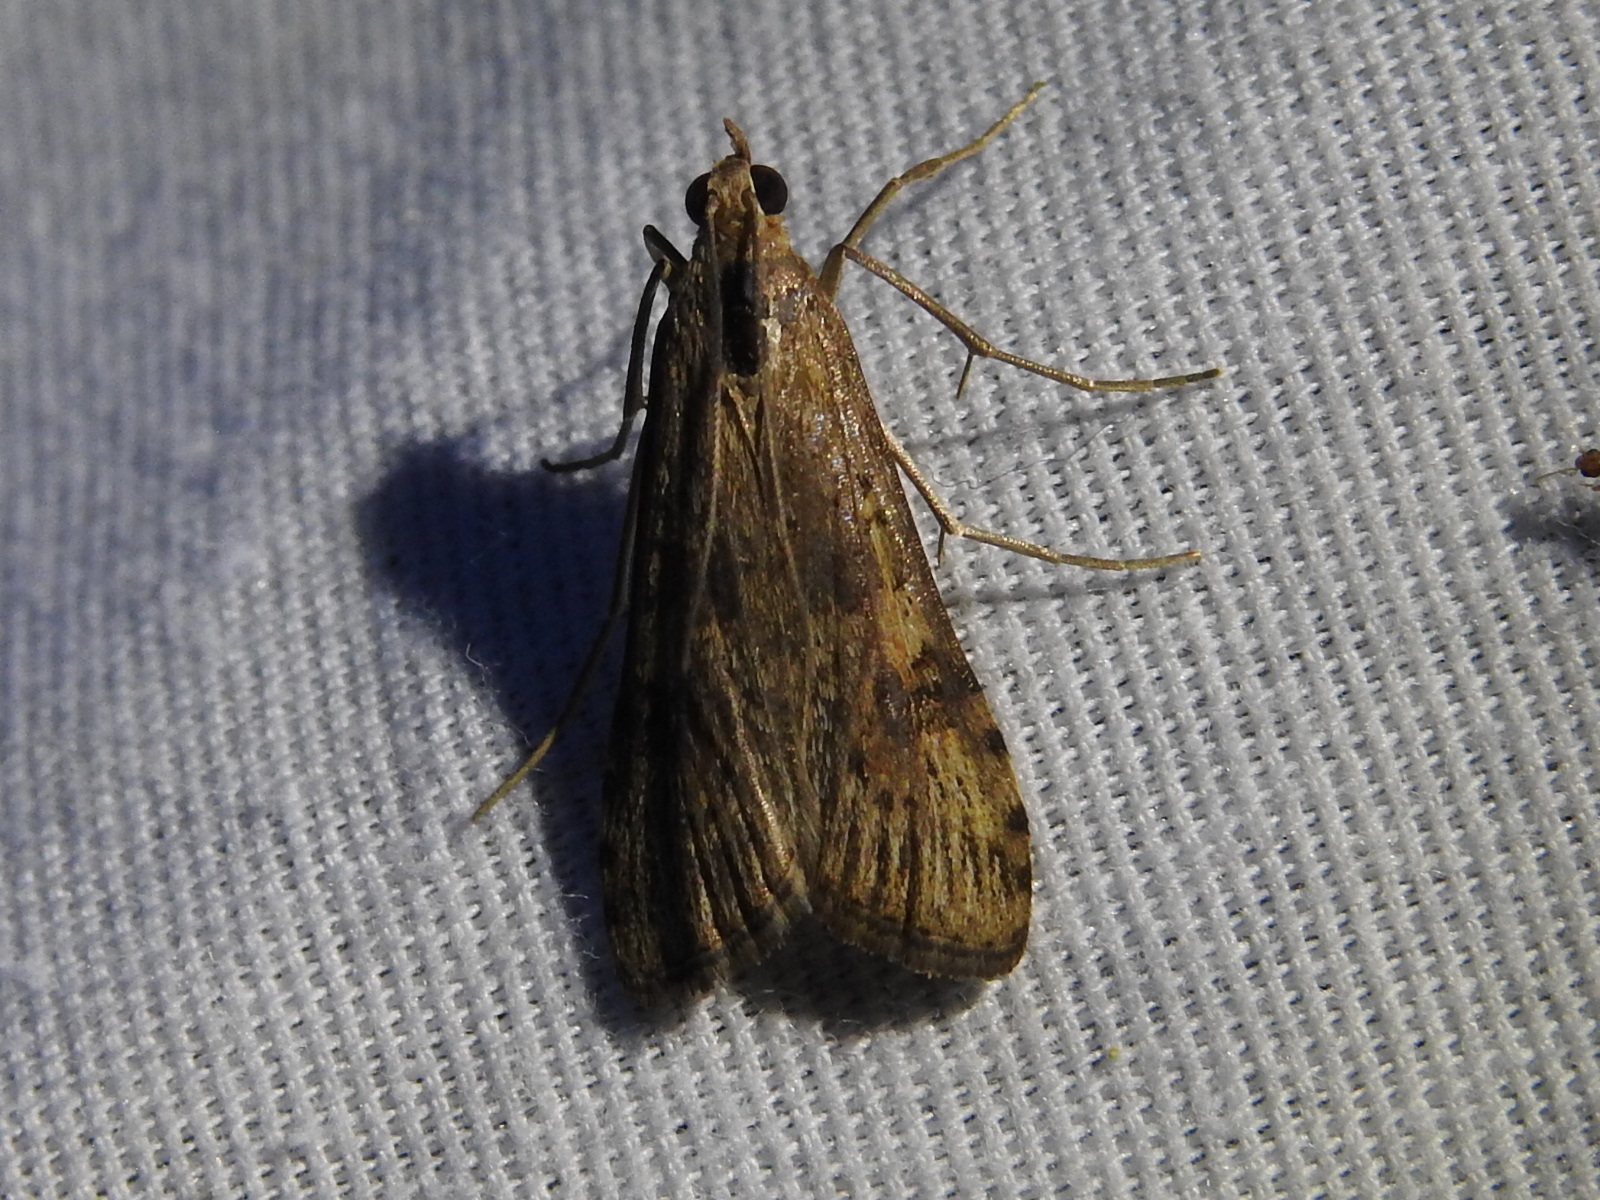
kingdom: Animalia
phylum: Arthropoda
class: Insecta
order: Lepidoptera
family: Crambidae
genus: Nomophila
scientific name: Nomophila nearctica
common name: American rush veneer
